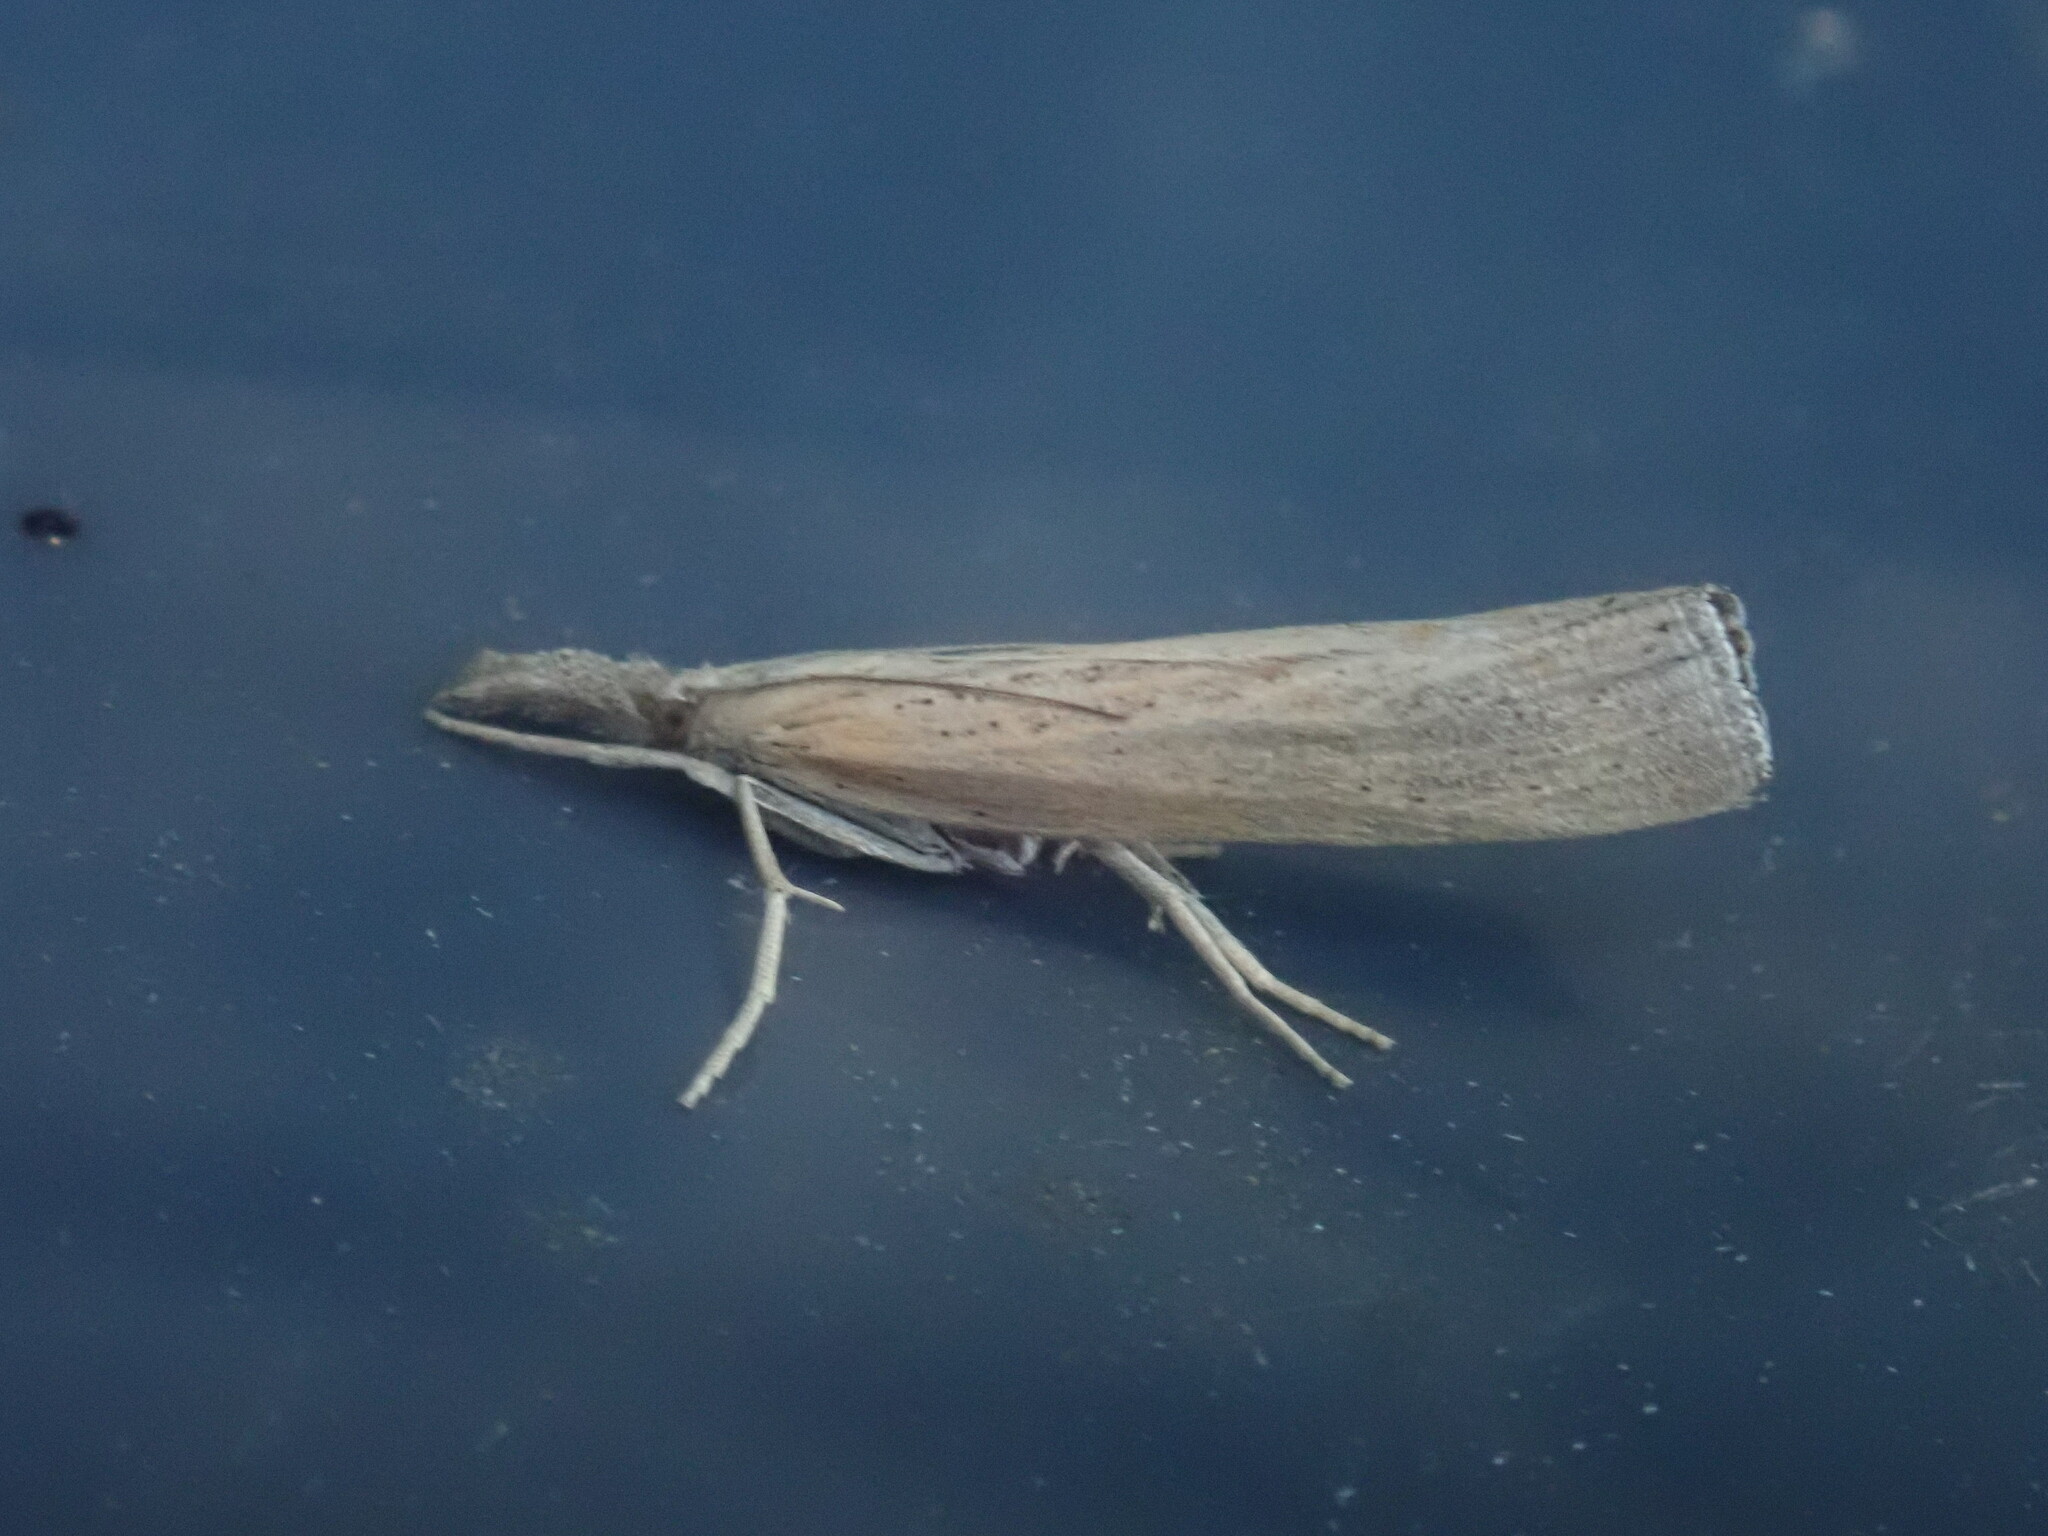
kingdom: Animalia
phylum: Arthropoda
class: Insecta
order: Lepidoptera
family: Crambidae
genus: Fissicrambus
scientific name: Fissicrambus mutabilis
